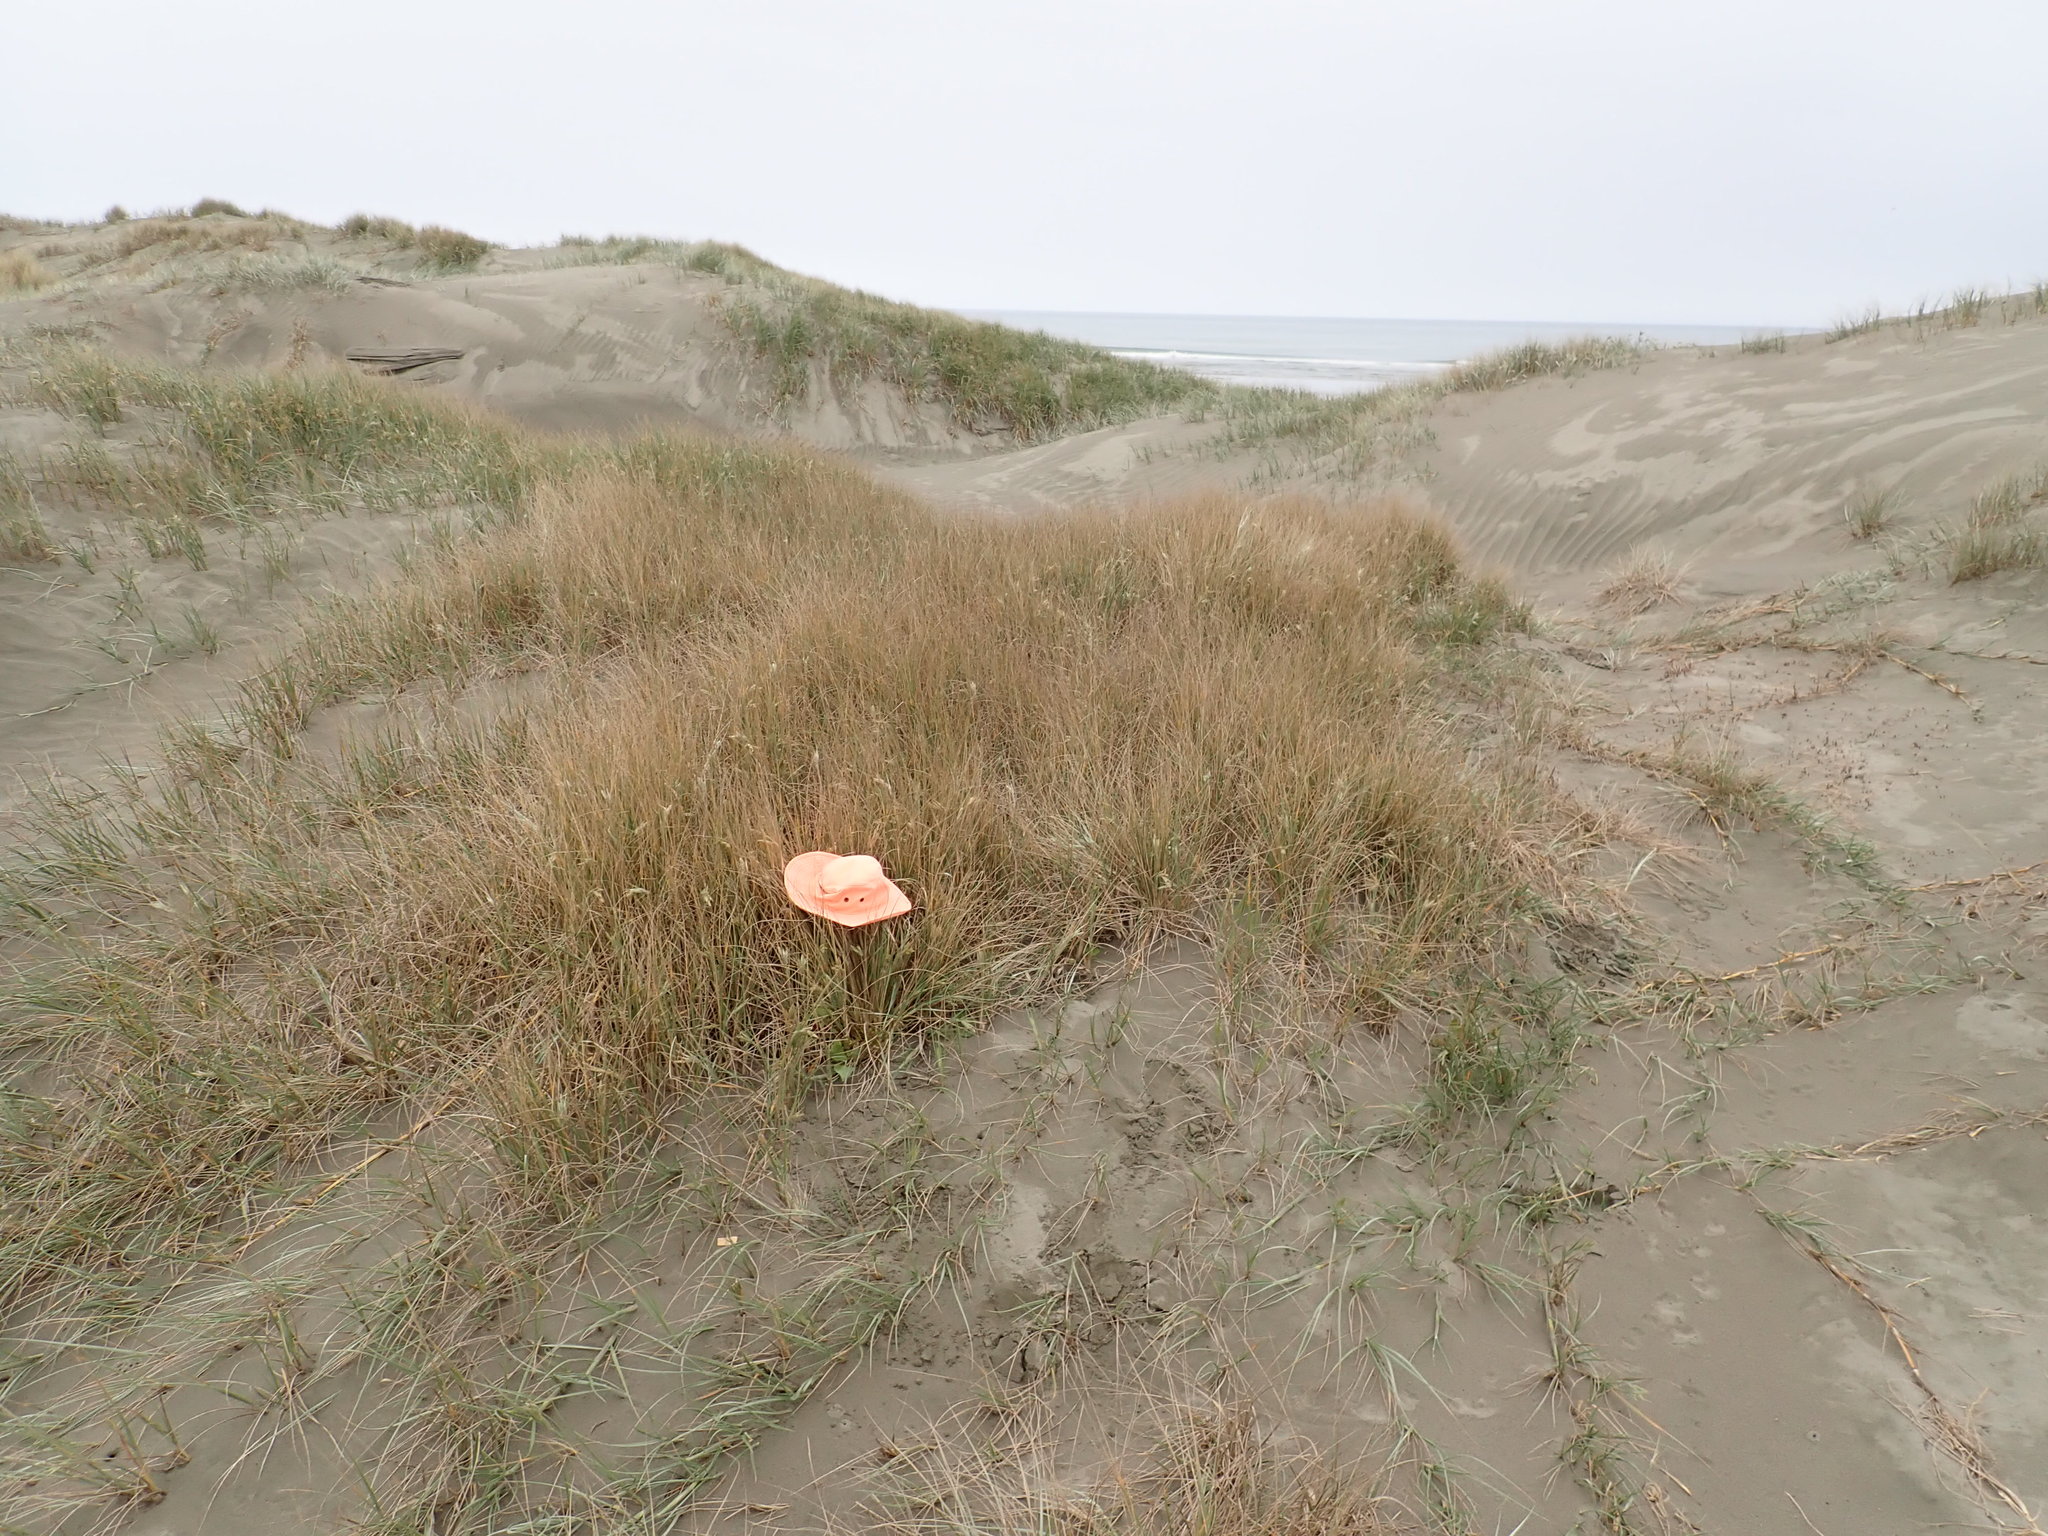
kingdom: Animalia
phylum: Arthropoda
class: Arachnida
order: Araneae
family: Thomisidae
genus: Sidymella
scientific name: Sidymella trapezia
